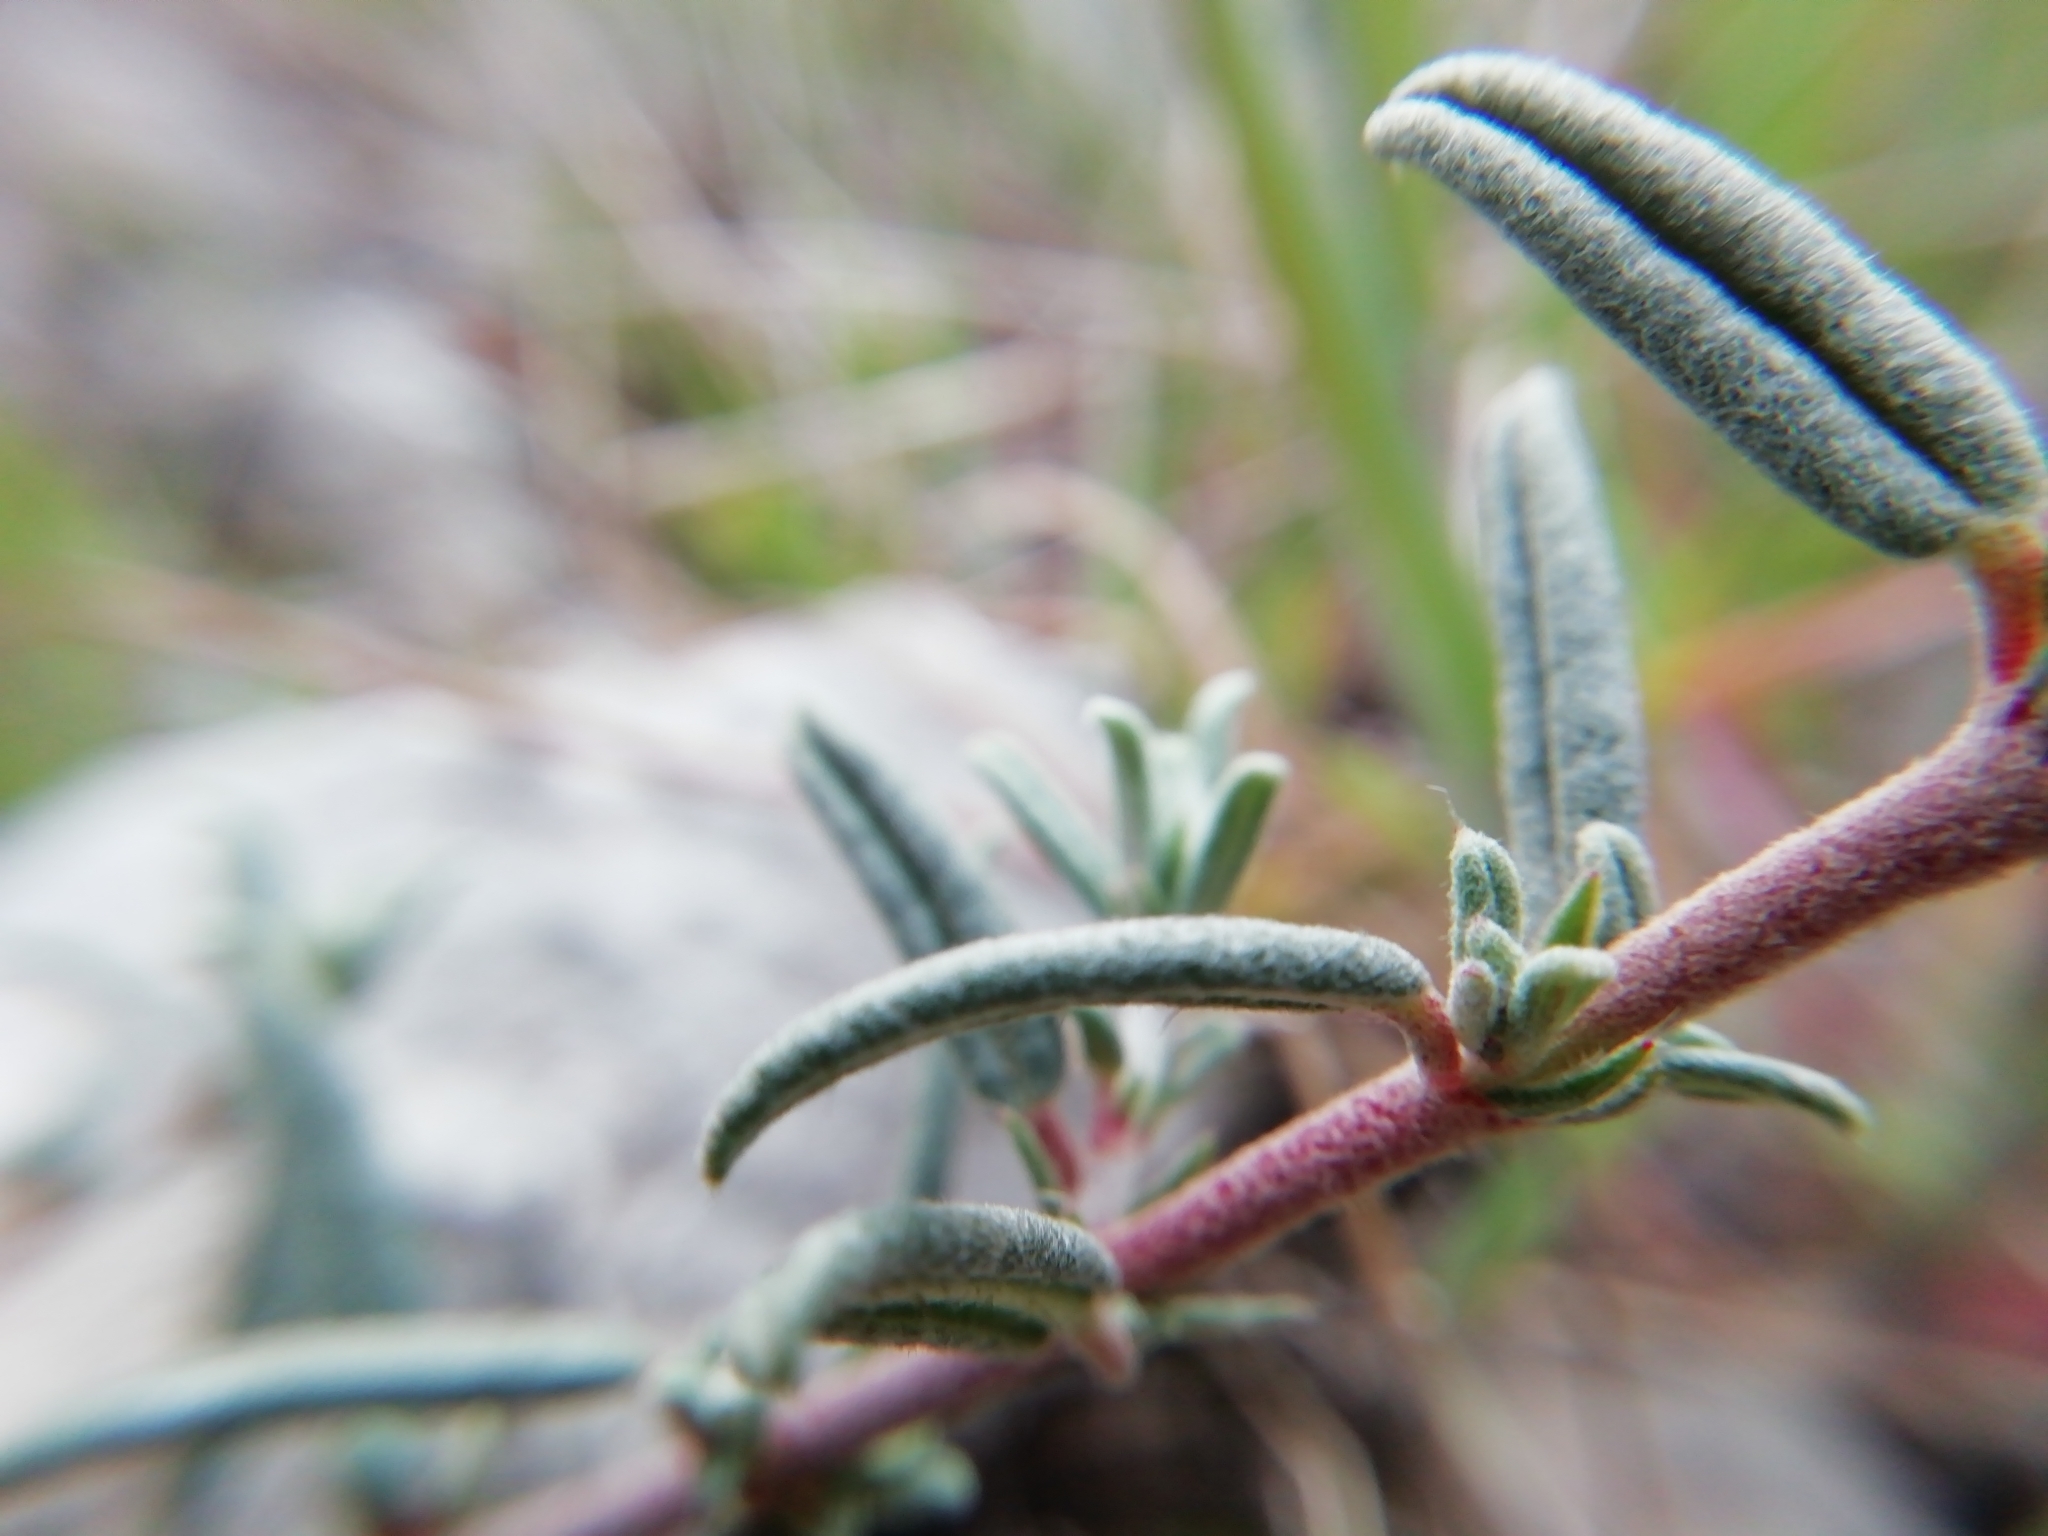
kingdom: Plantae
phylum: Tracheophyta
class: Magnoliopsida
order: Malvales
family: Cistaceae
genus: Helianthemum
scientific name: Helianthemum apenninum
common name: White rock-rose
